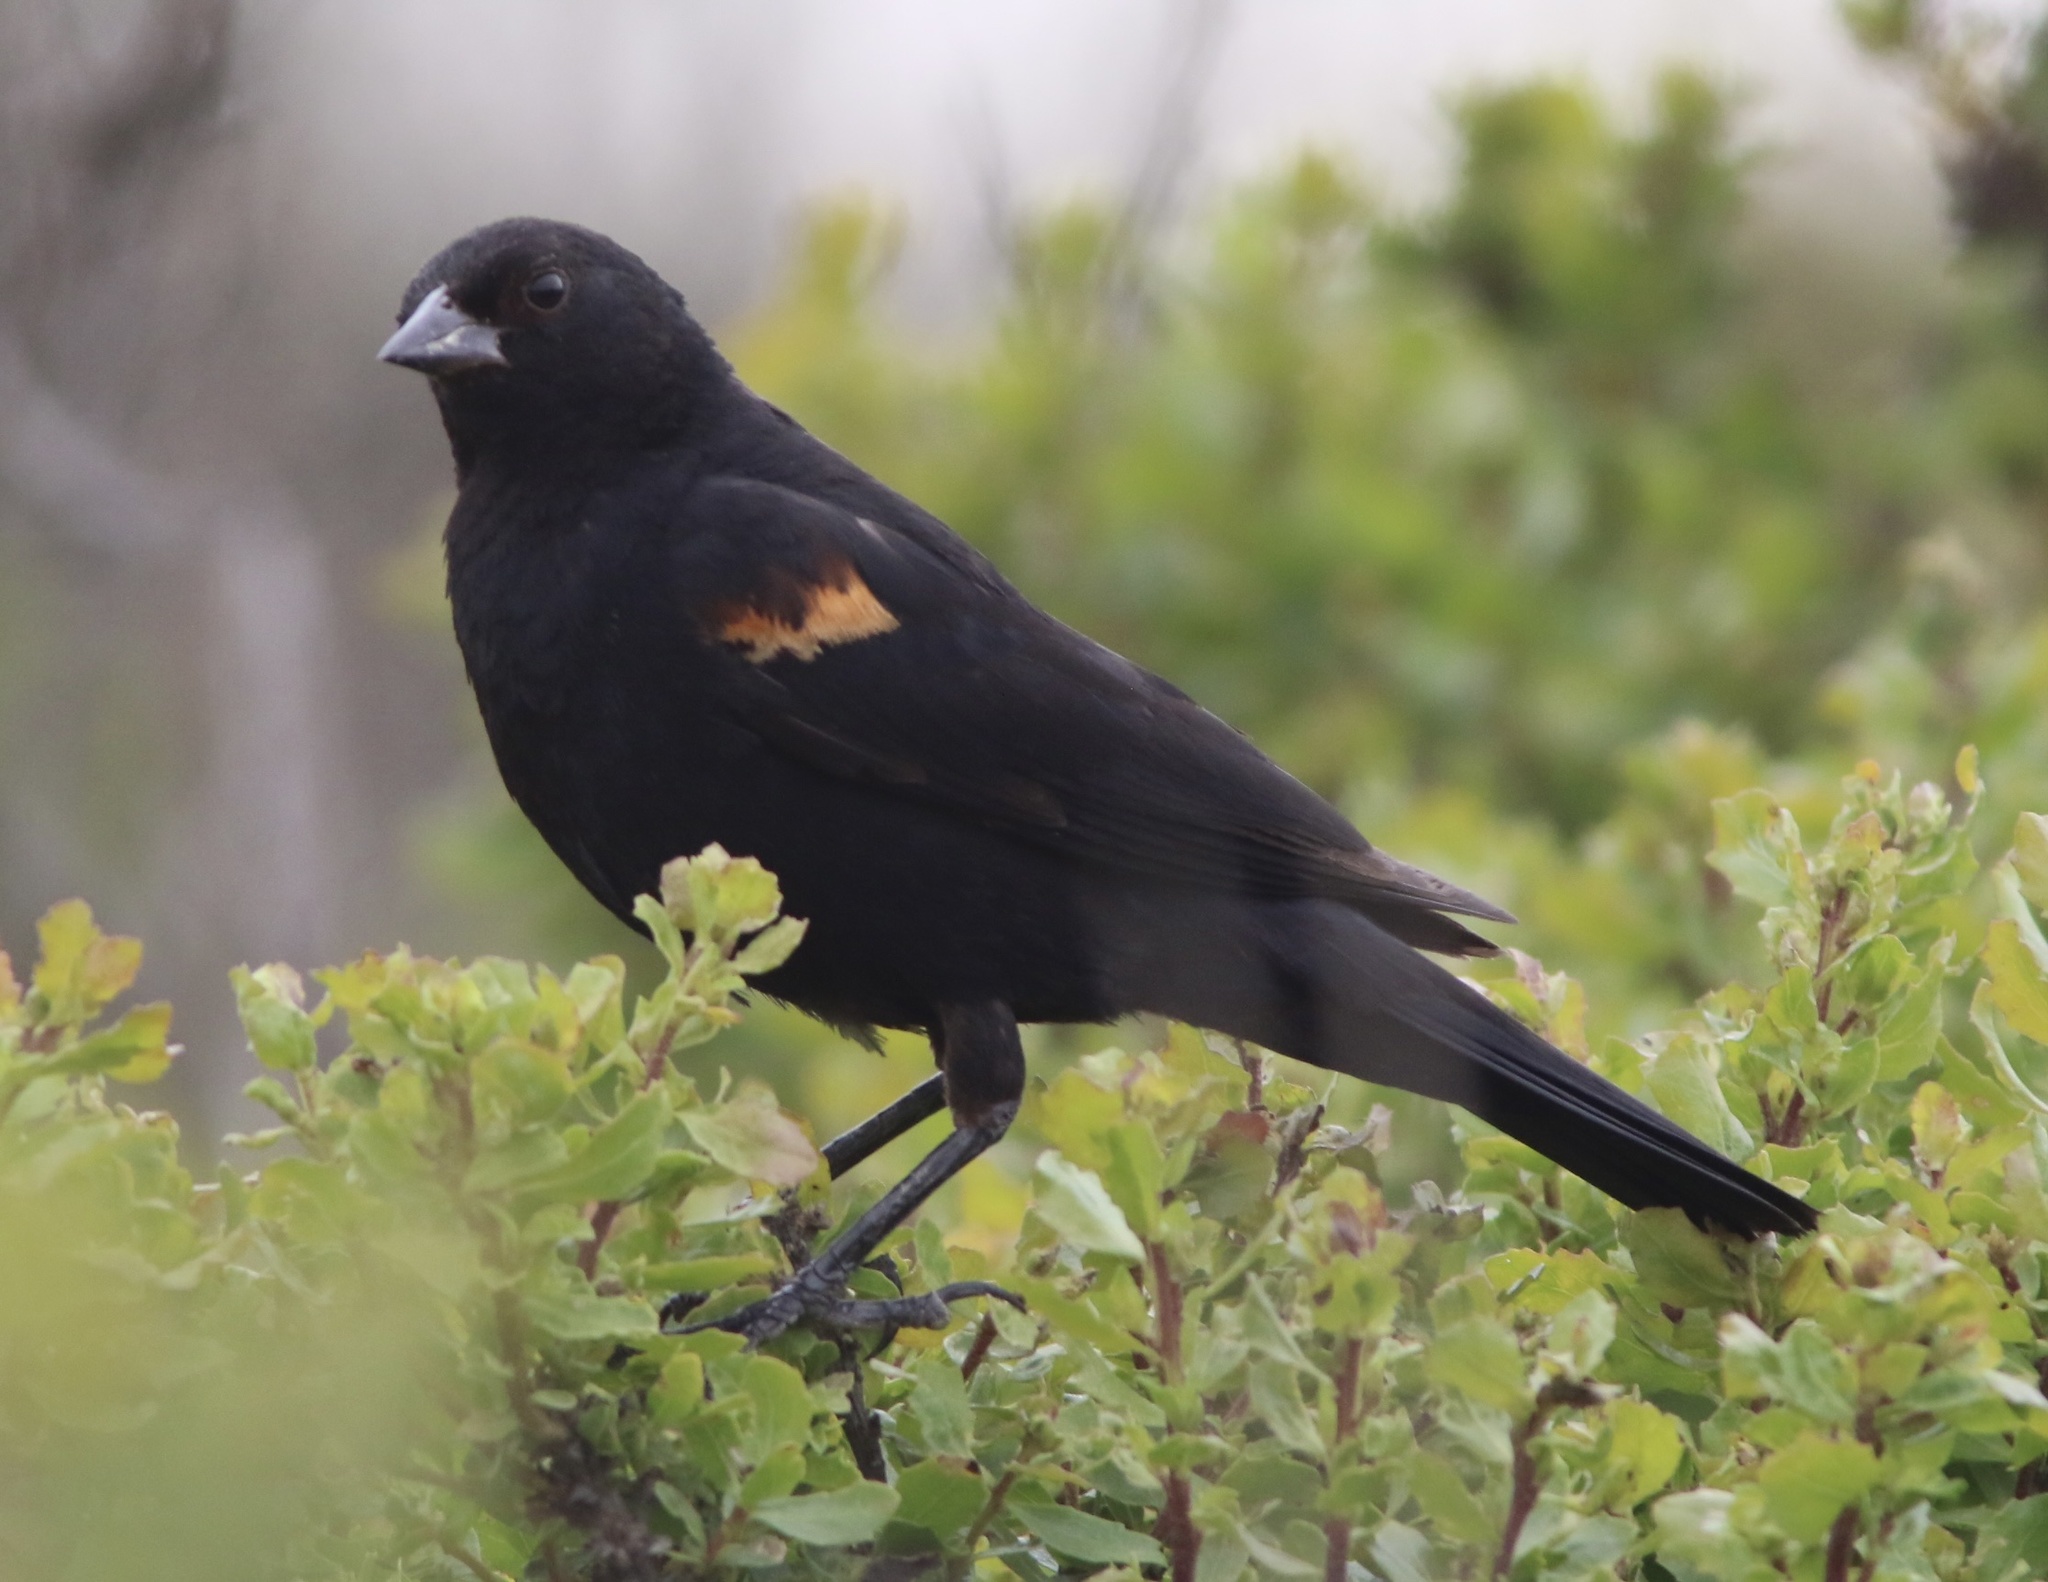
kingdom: Animalia
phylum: Chordata
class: Aves
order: Passeriformes
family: Icteridae
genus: Agelaius
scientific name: Agelaius phoeniceus
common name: Red-winged blackbird
